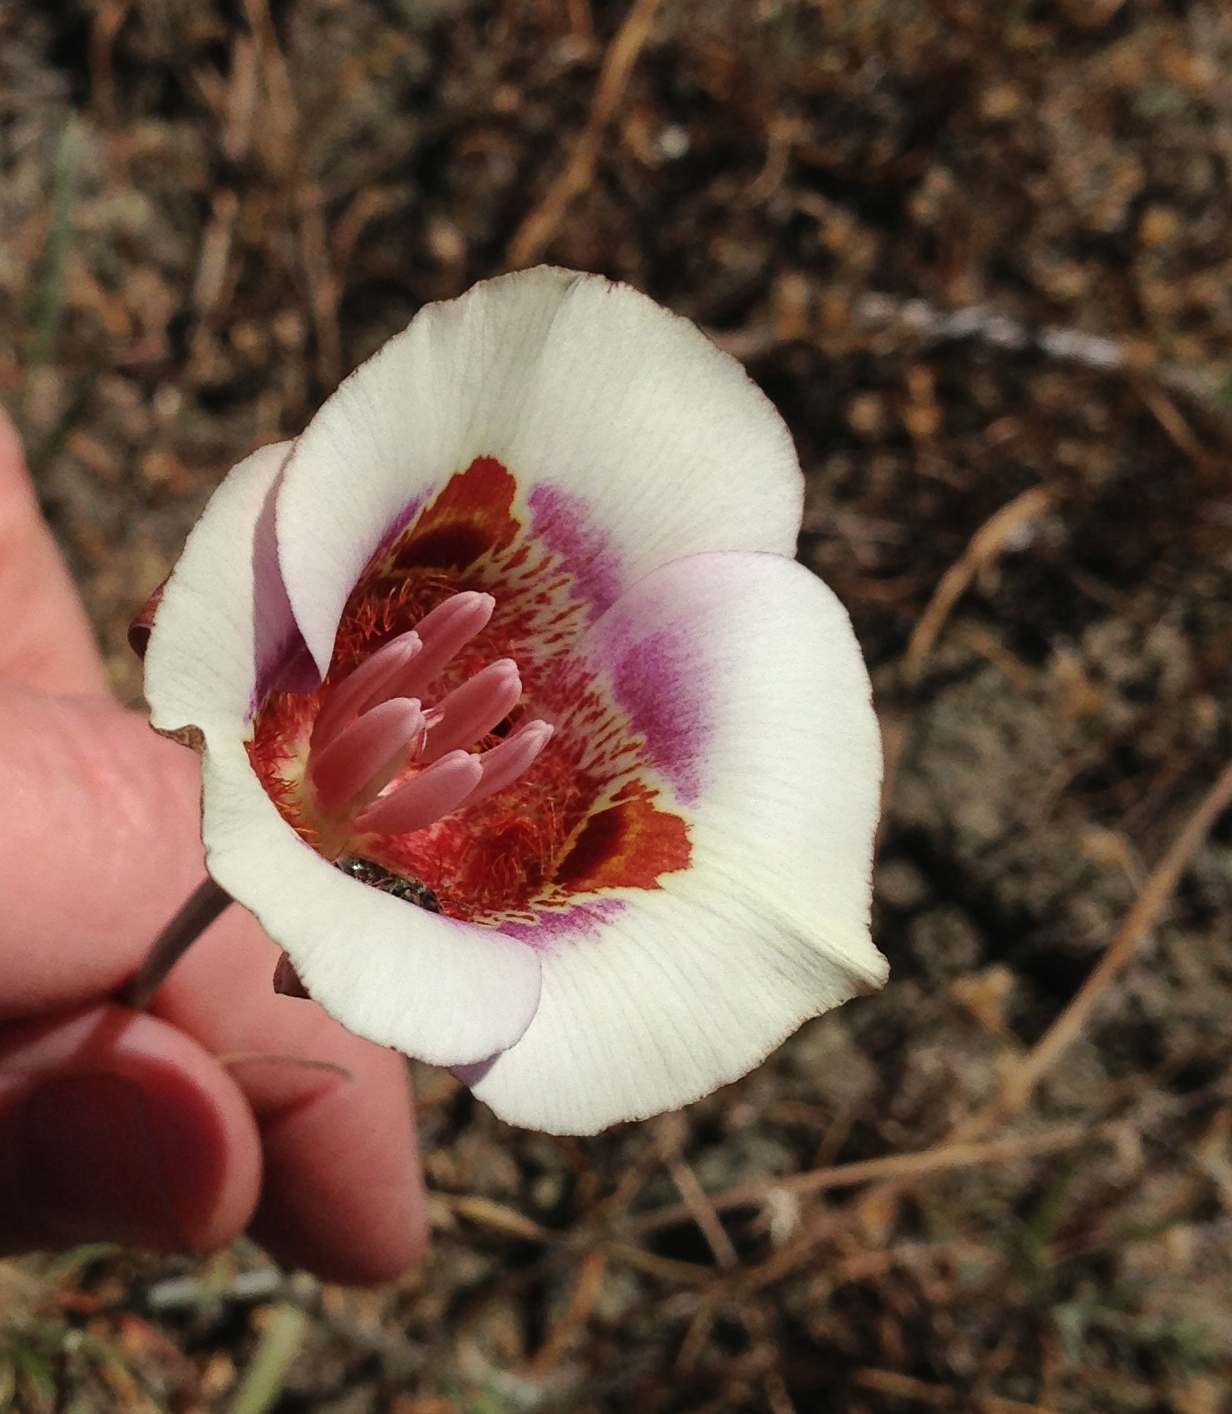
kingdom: Plantae
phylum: Tracheophyta
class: Liliopsida
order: Liliales
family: Liliaceae
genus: Calochortus
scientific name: Calochortus argillosus
